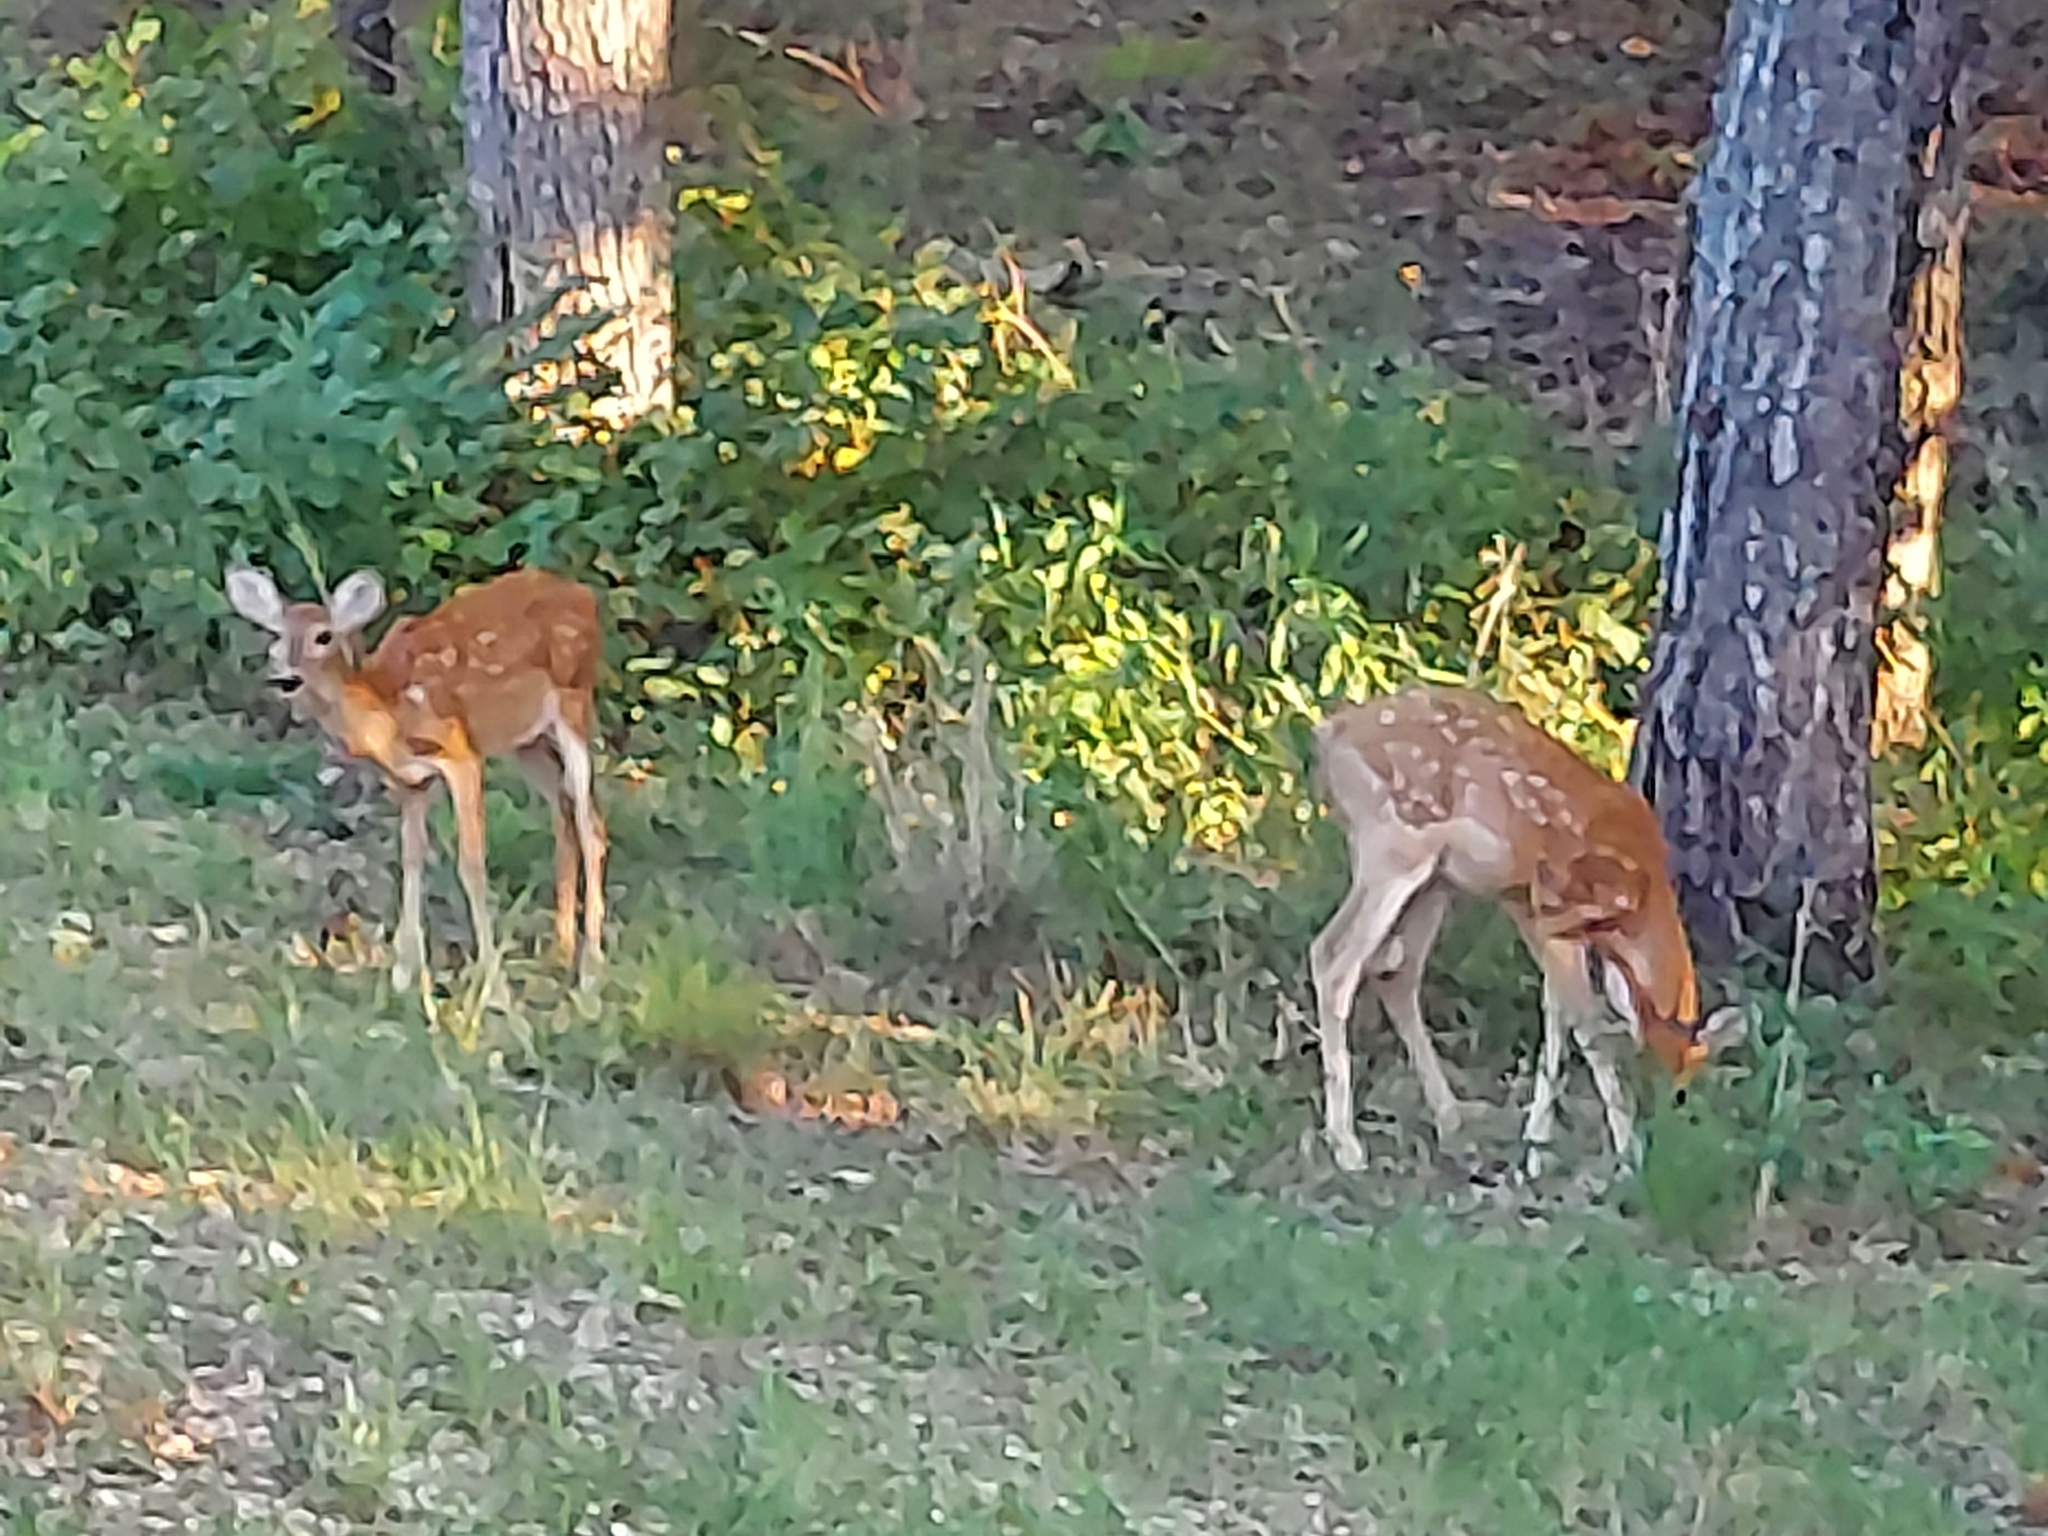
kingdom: Animalia
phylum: Chordata
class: Mammalia
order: Artiodactyla
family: Cervidae
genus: Odocoileus
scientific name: Odocoileus virginianus
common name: White-tailed deer
